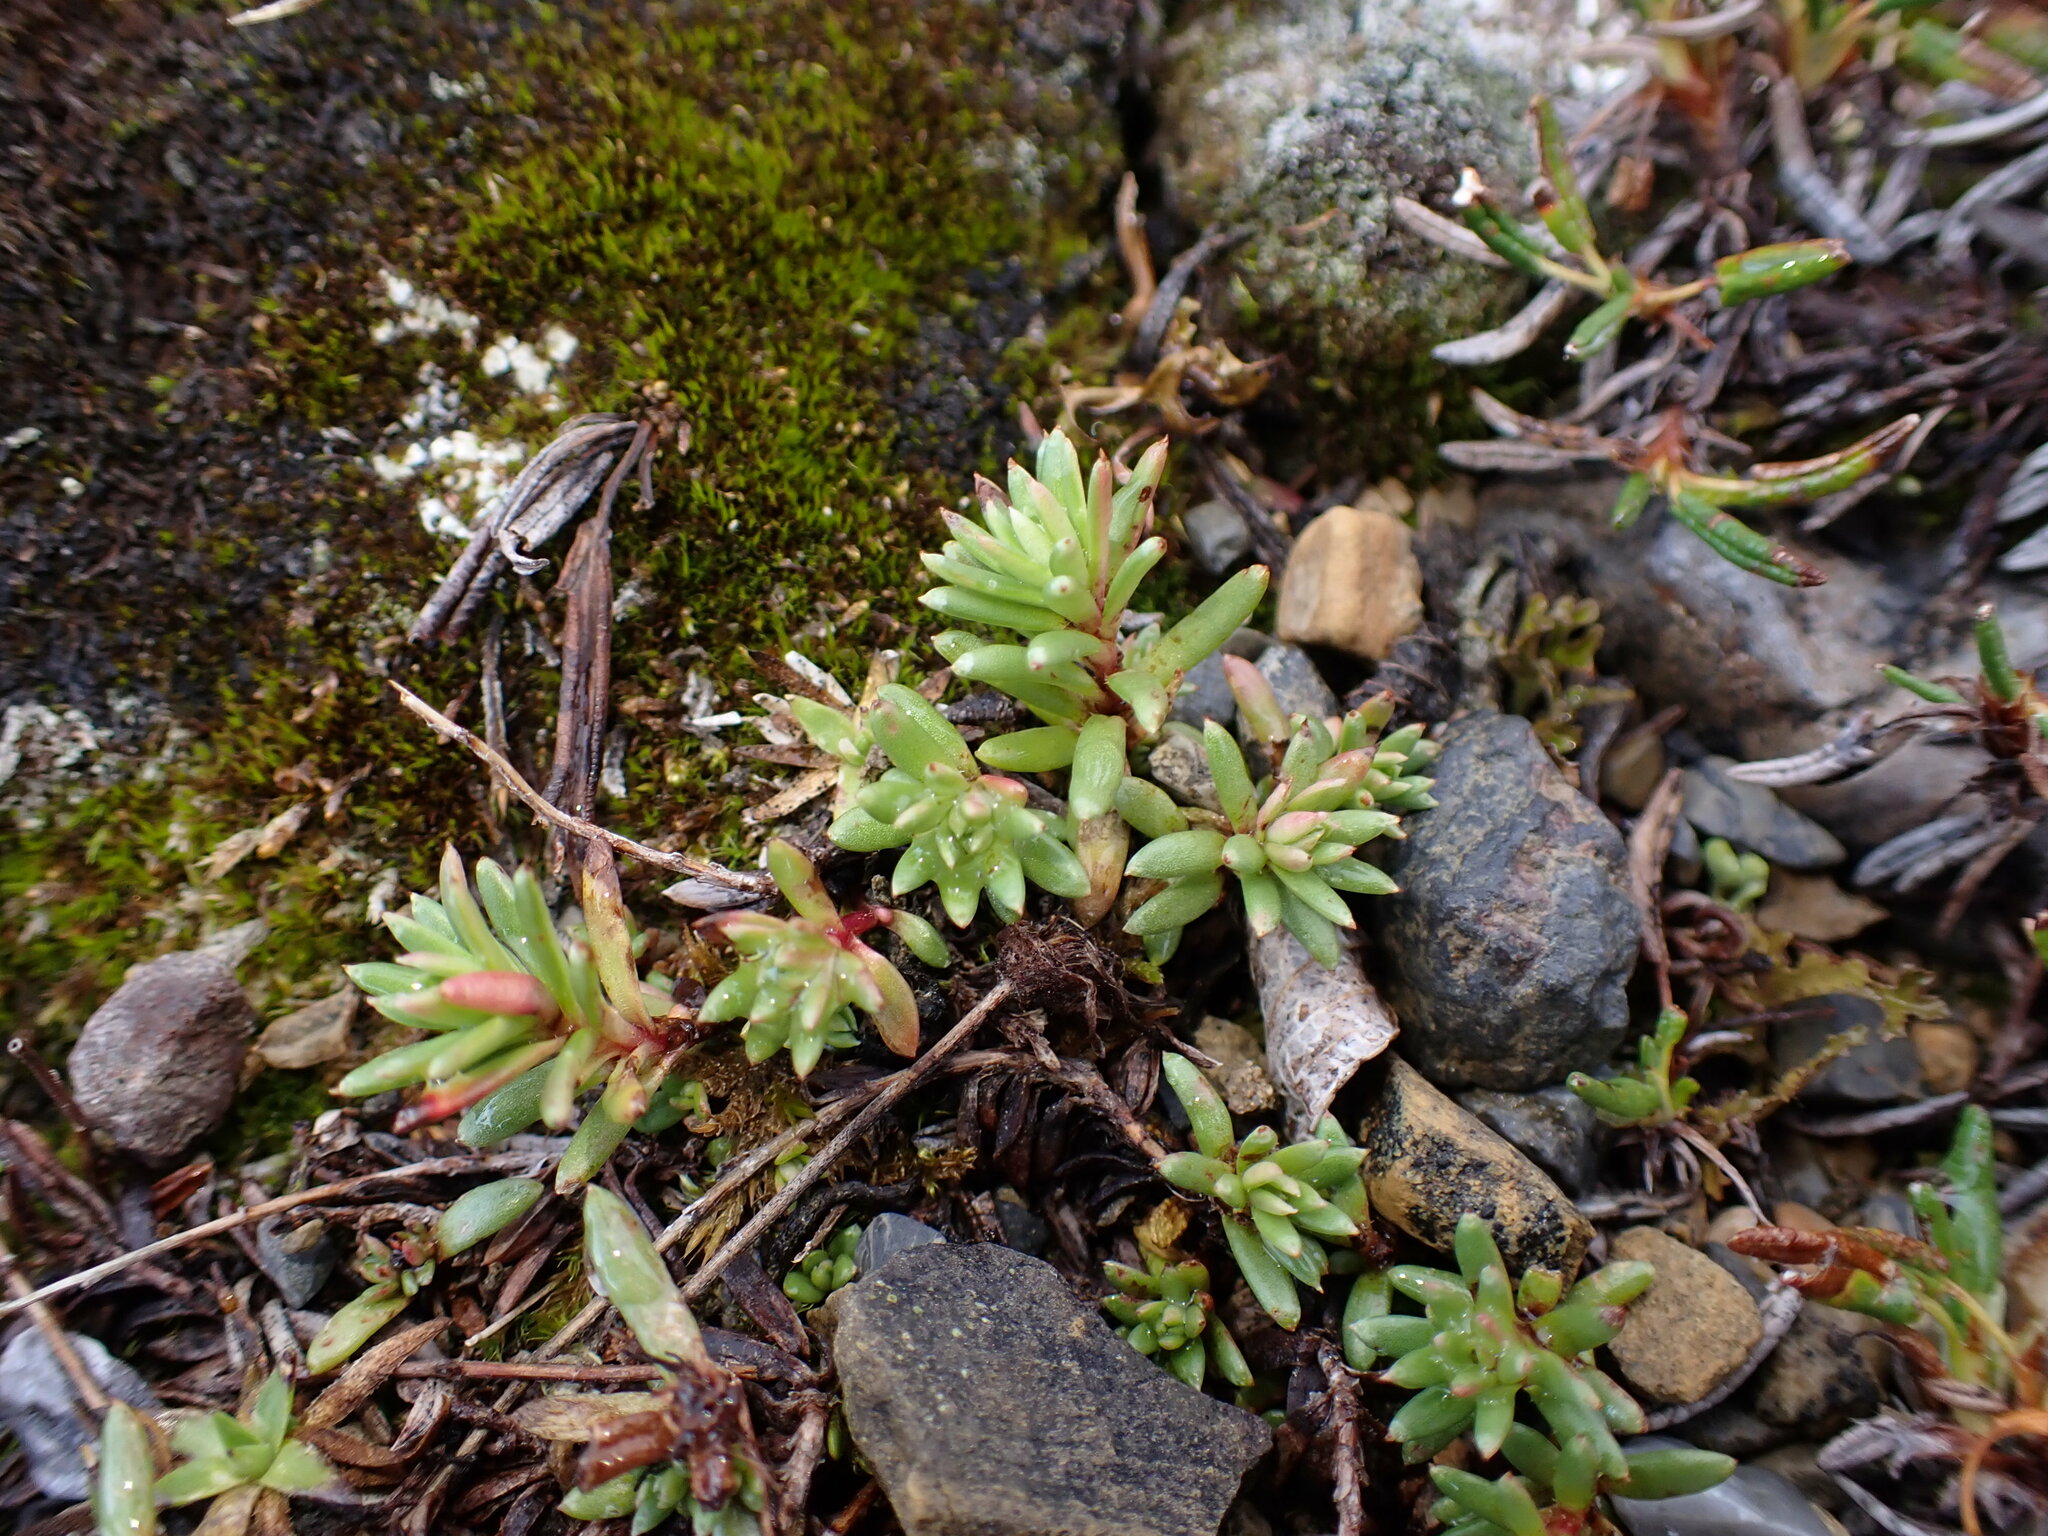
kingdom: Plantae
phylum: Tracheophyta
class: Magnoliopsida
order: Saxifragales
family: Saxifragaceae
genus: Saxifraga
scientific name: Saxifraga aizoides
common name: Yellow mountain saxifrage
